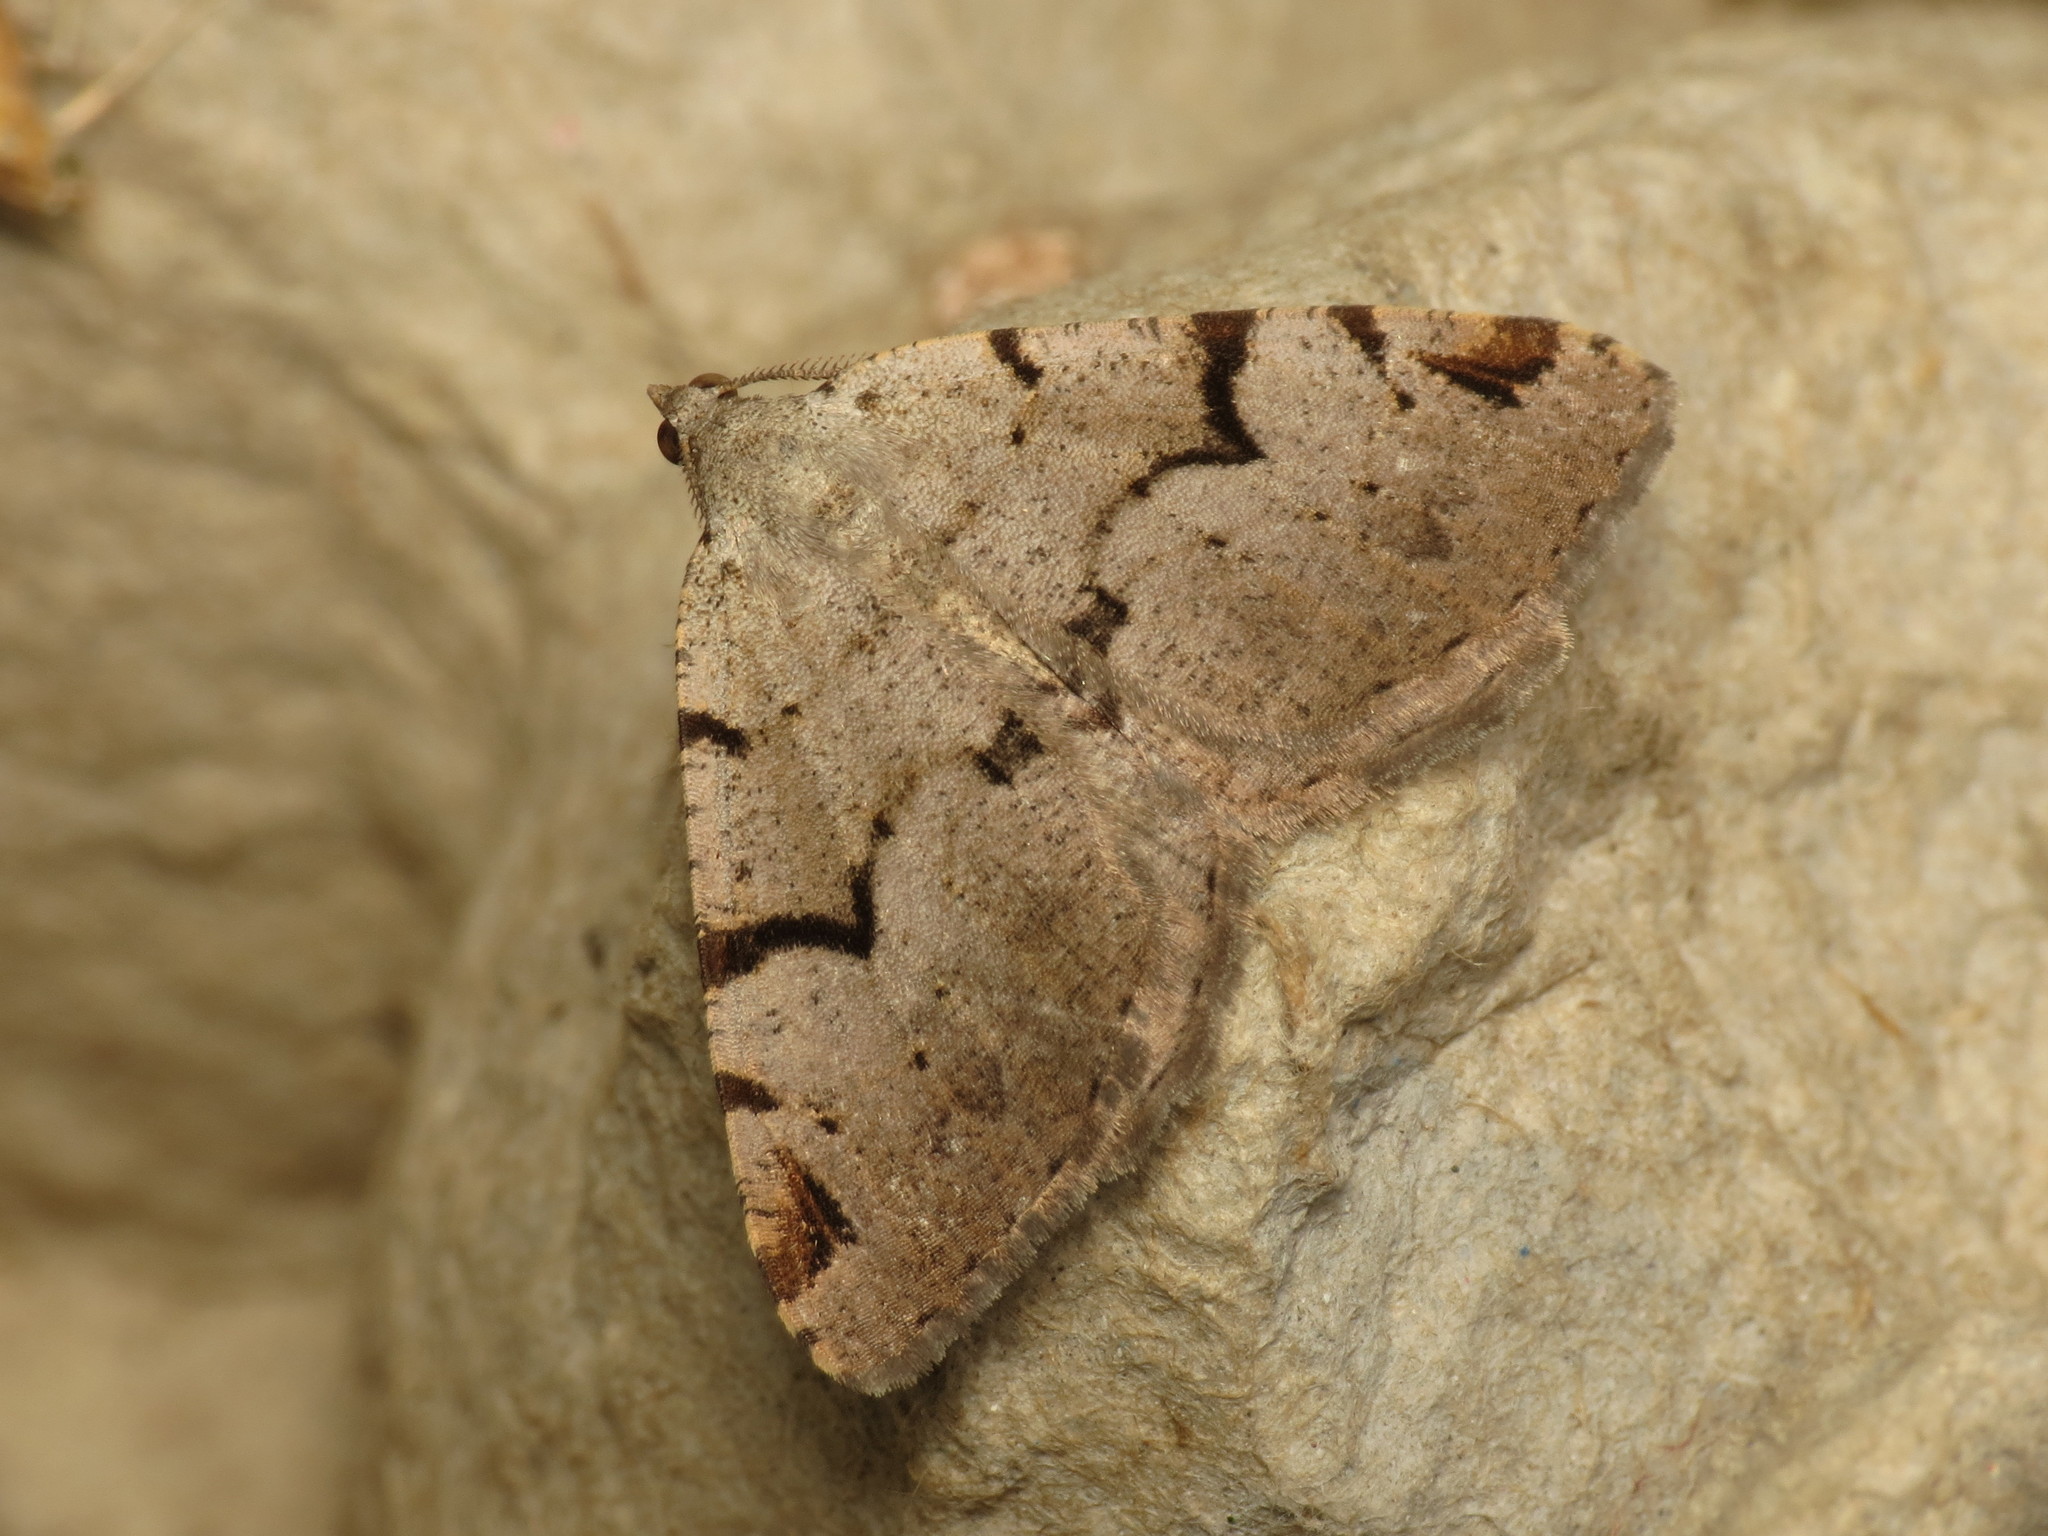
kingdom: Animalia
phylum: Arthropoda
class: Insecta
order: Lepidoptera
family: Geometridae
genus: Macaria
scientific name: Macaria wauaria
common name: V-moth
